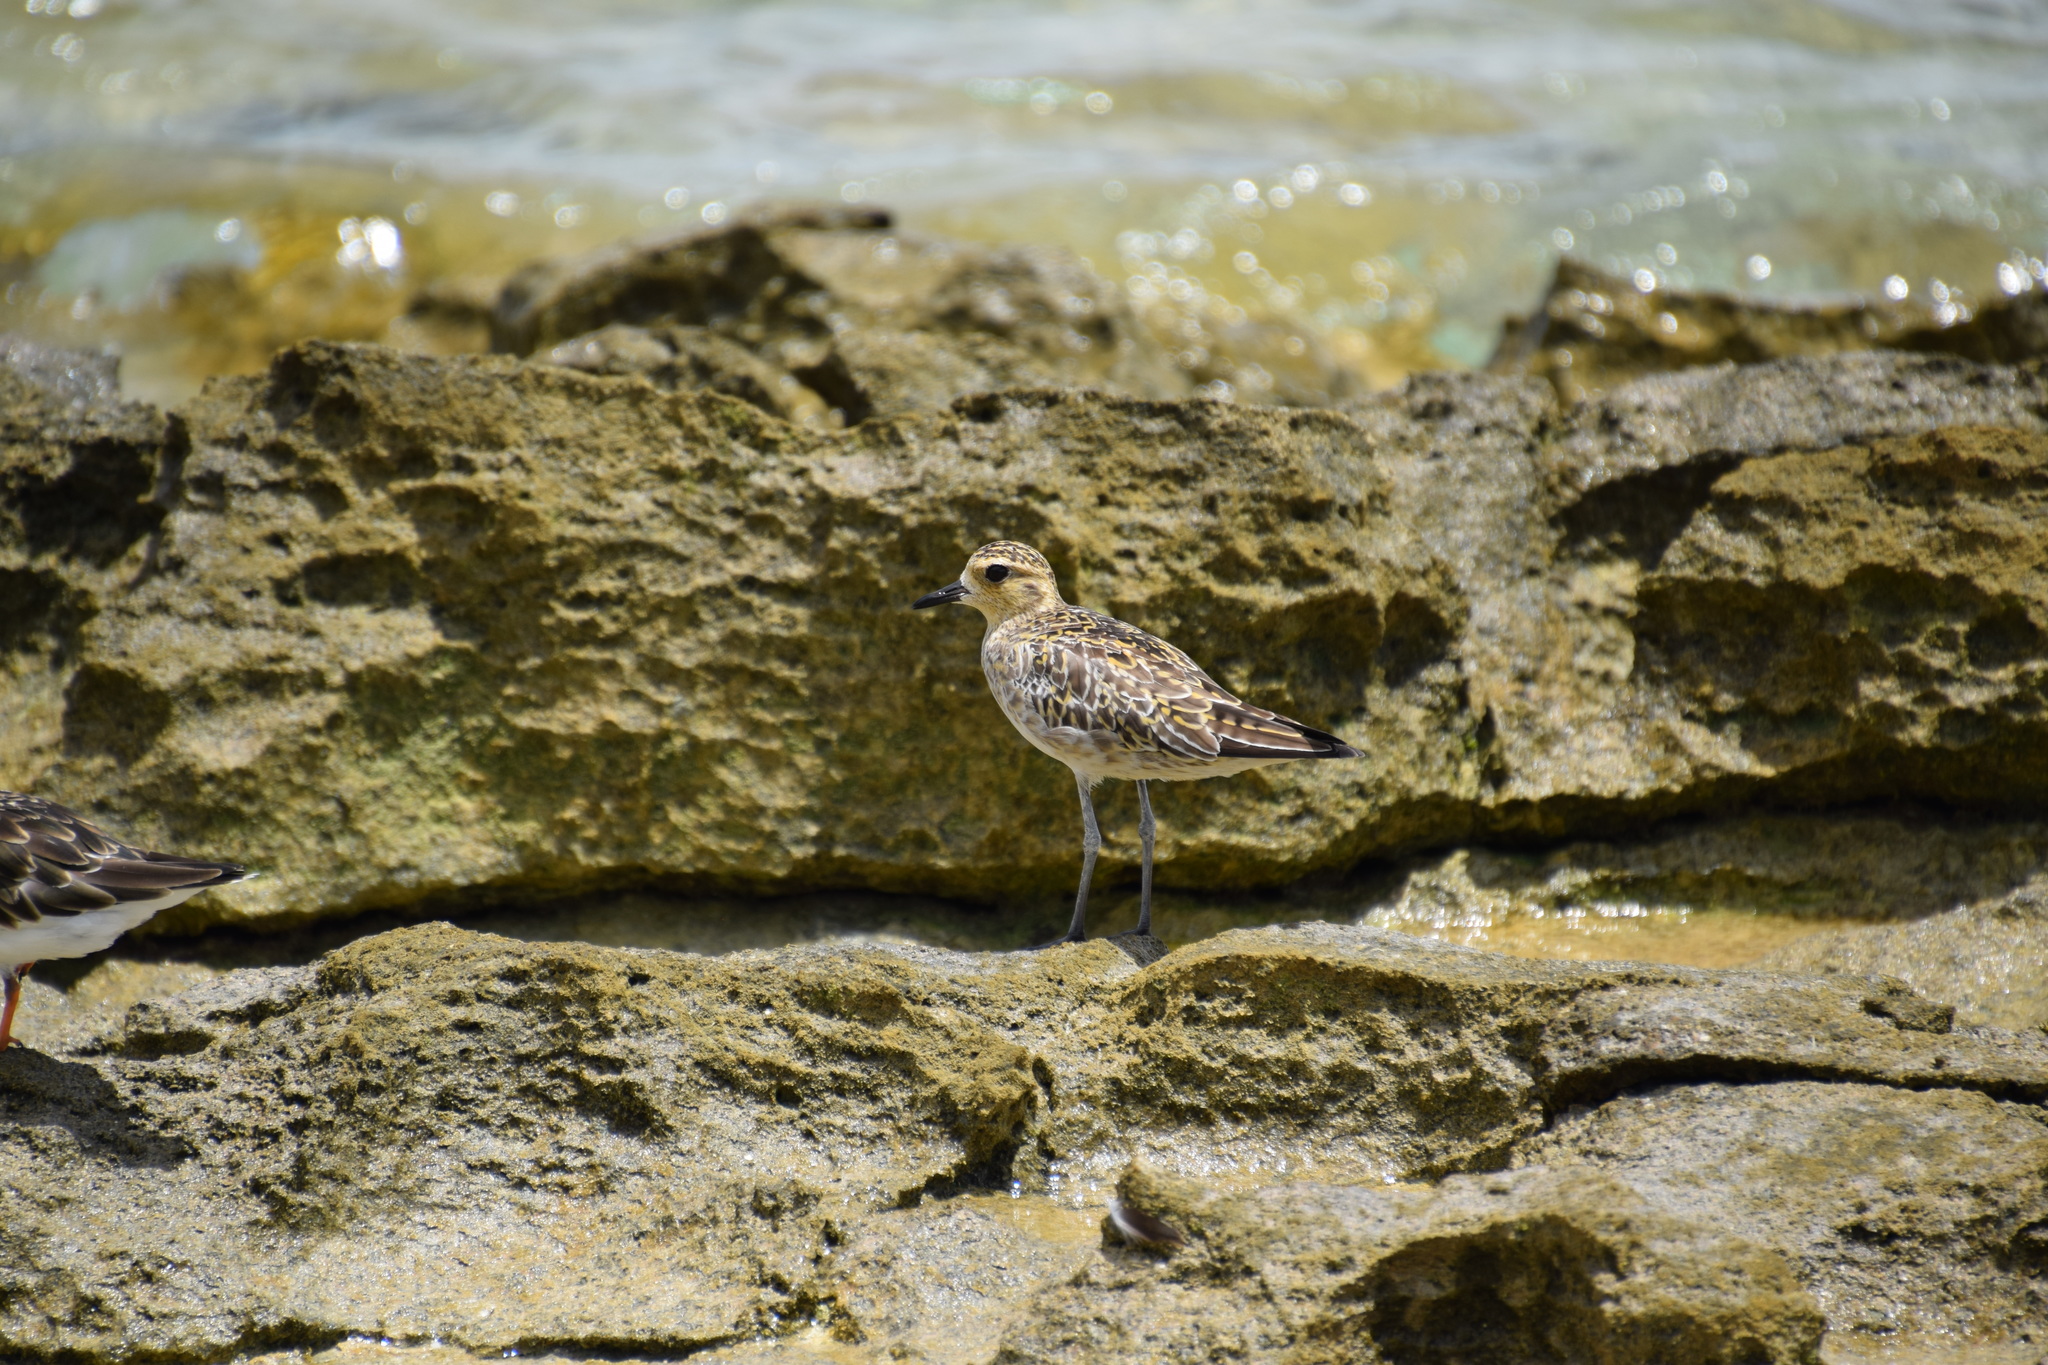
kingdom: Animalia
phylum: Chordata
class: Aves
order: Charadriiformes
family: Charadriidae
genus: Pluvialis
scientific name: Pluvialis fulva
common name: Pacific golden plover
